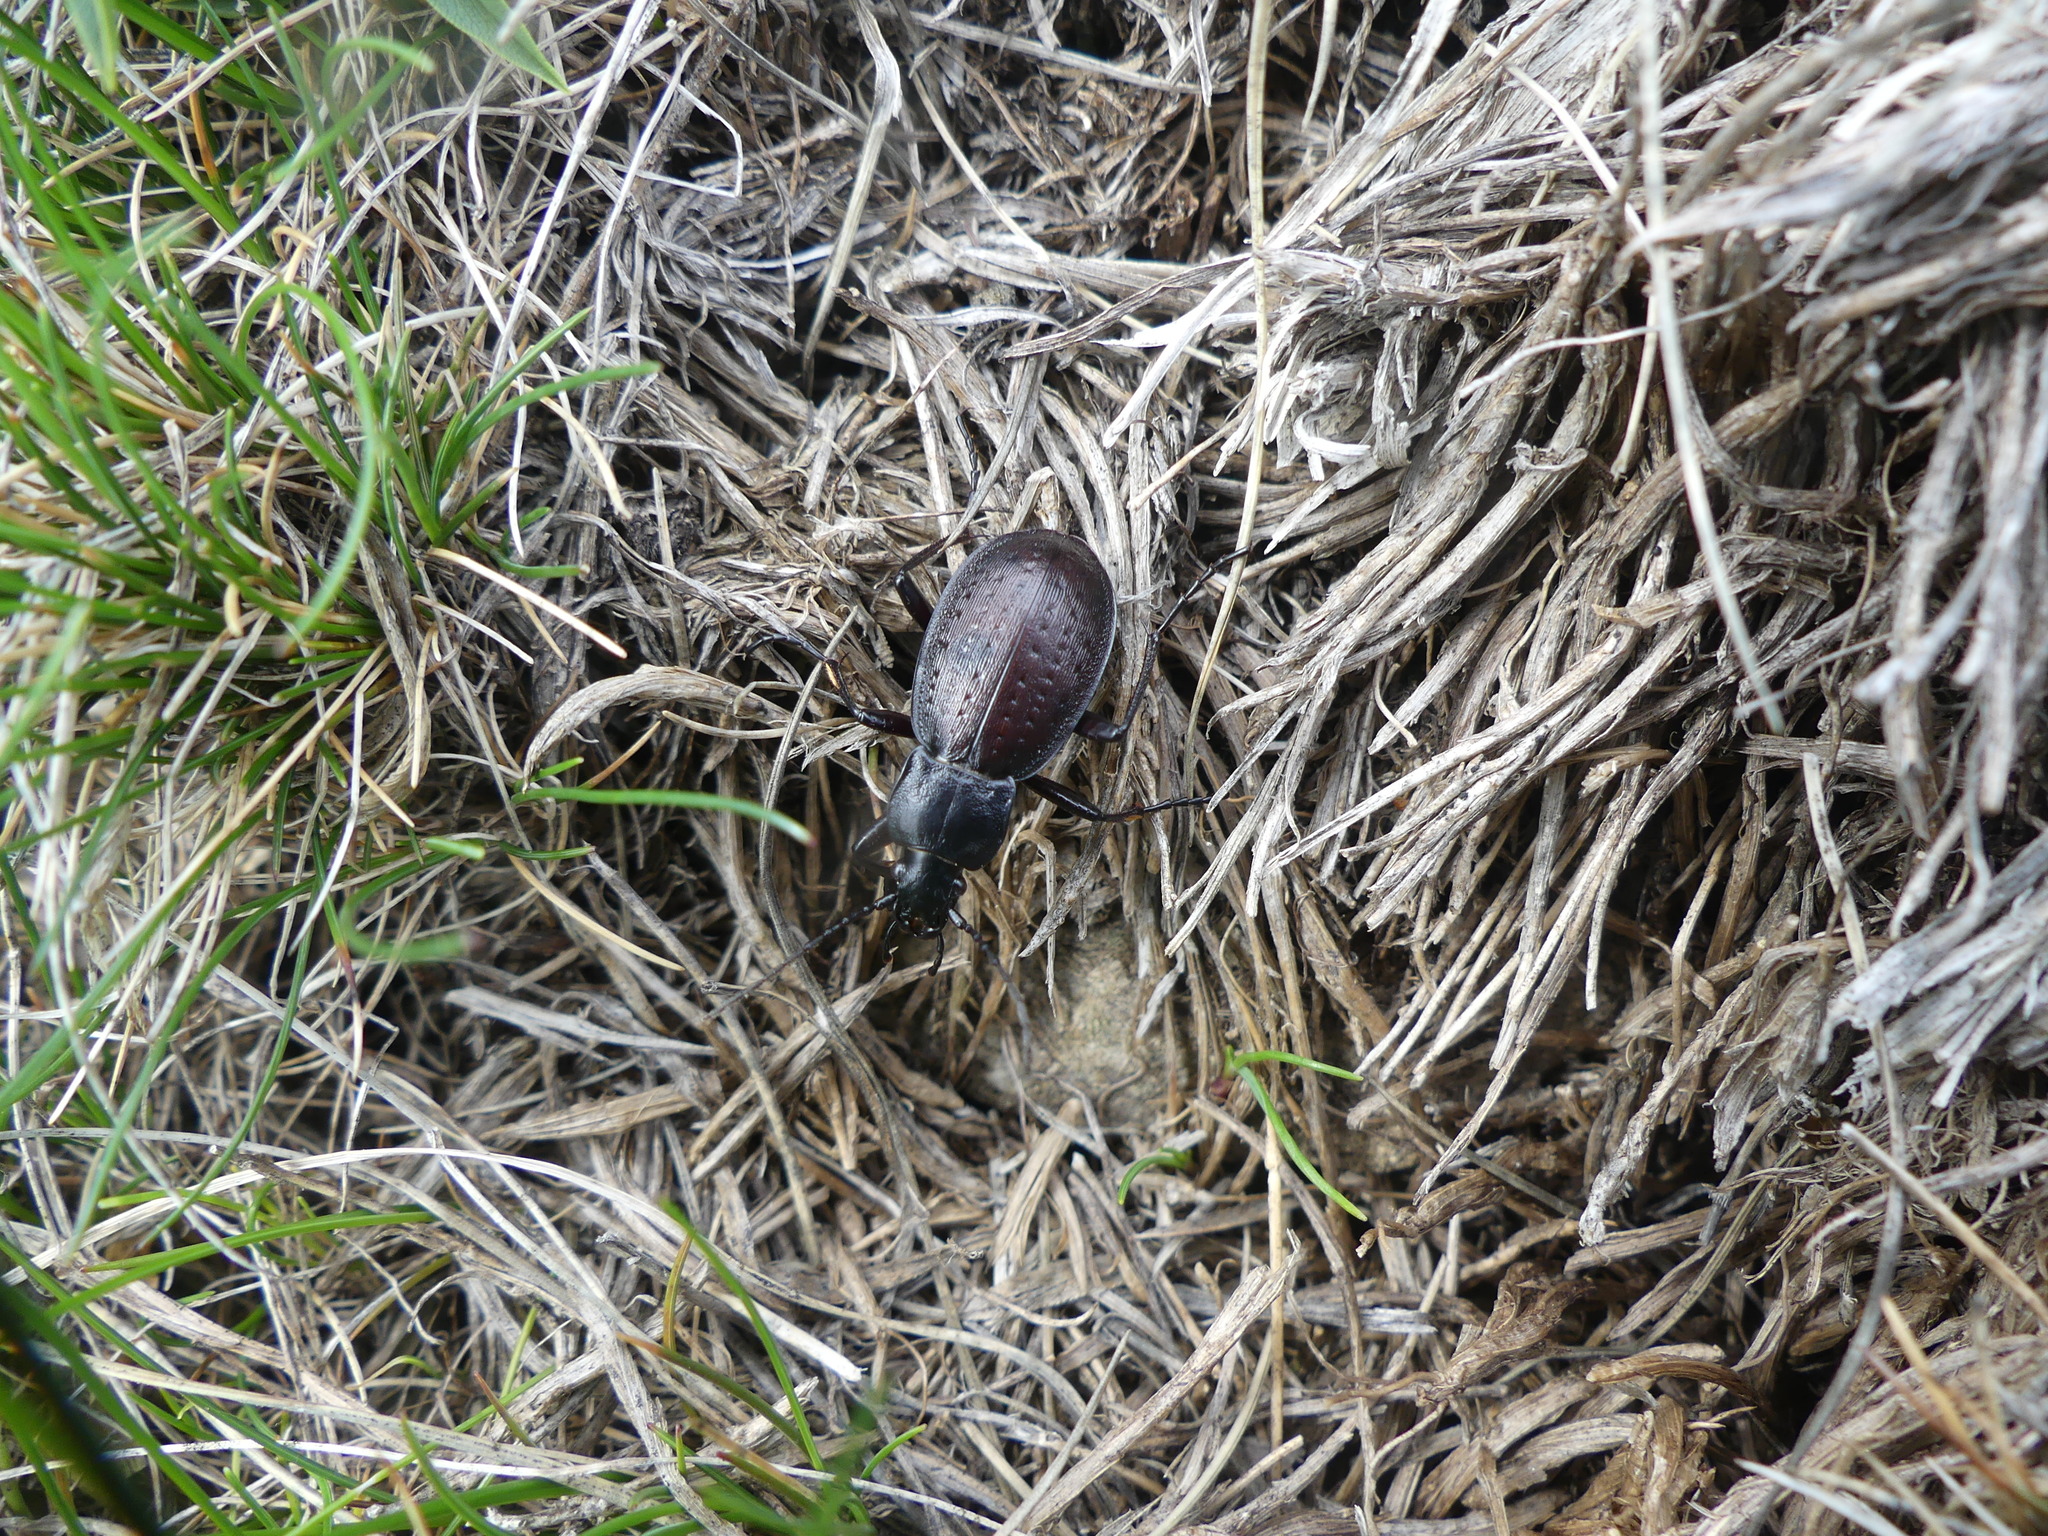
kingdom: Animalia
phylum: Arthropoda
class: Insecta
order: Coleoptera
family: Carabidae
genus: Carabus
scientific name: Carabus castanopterus
